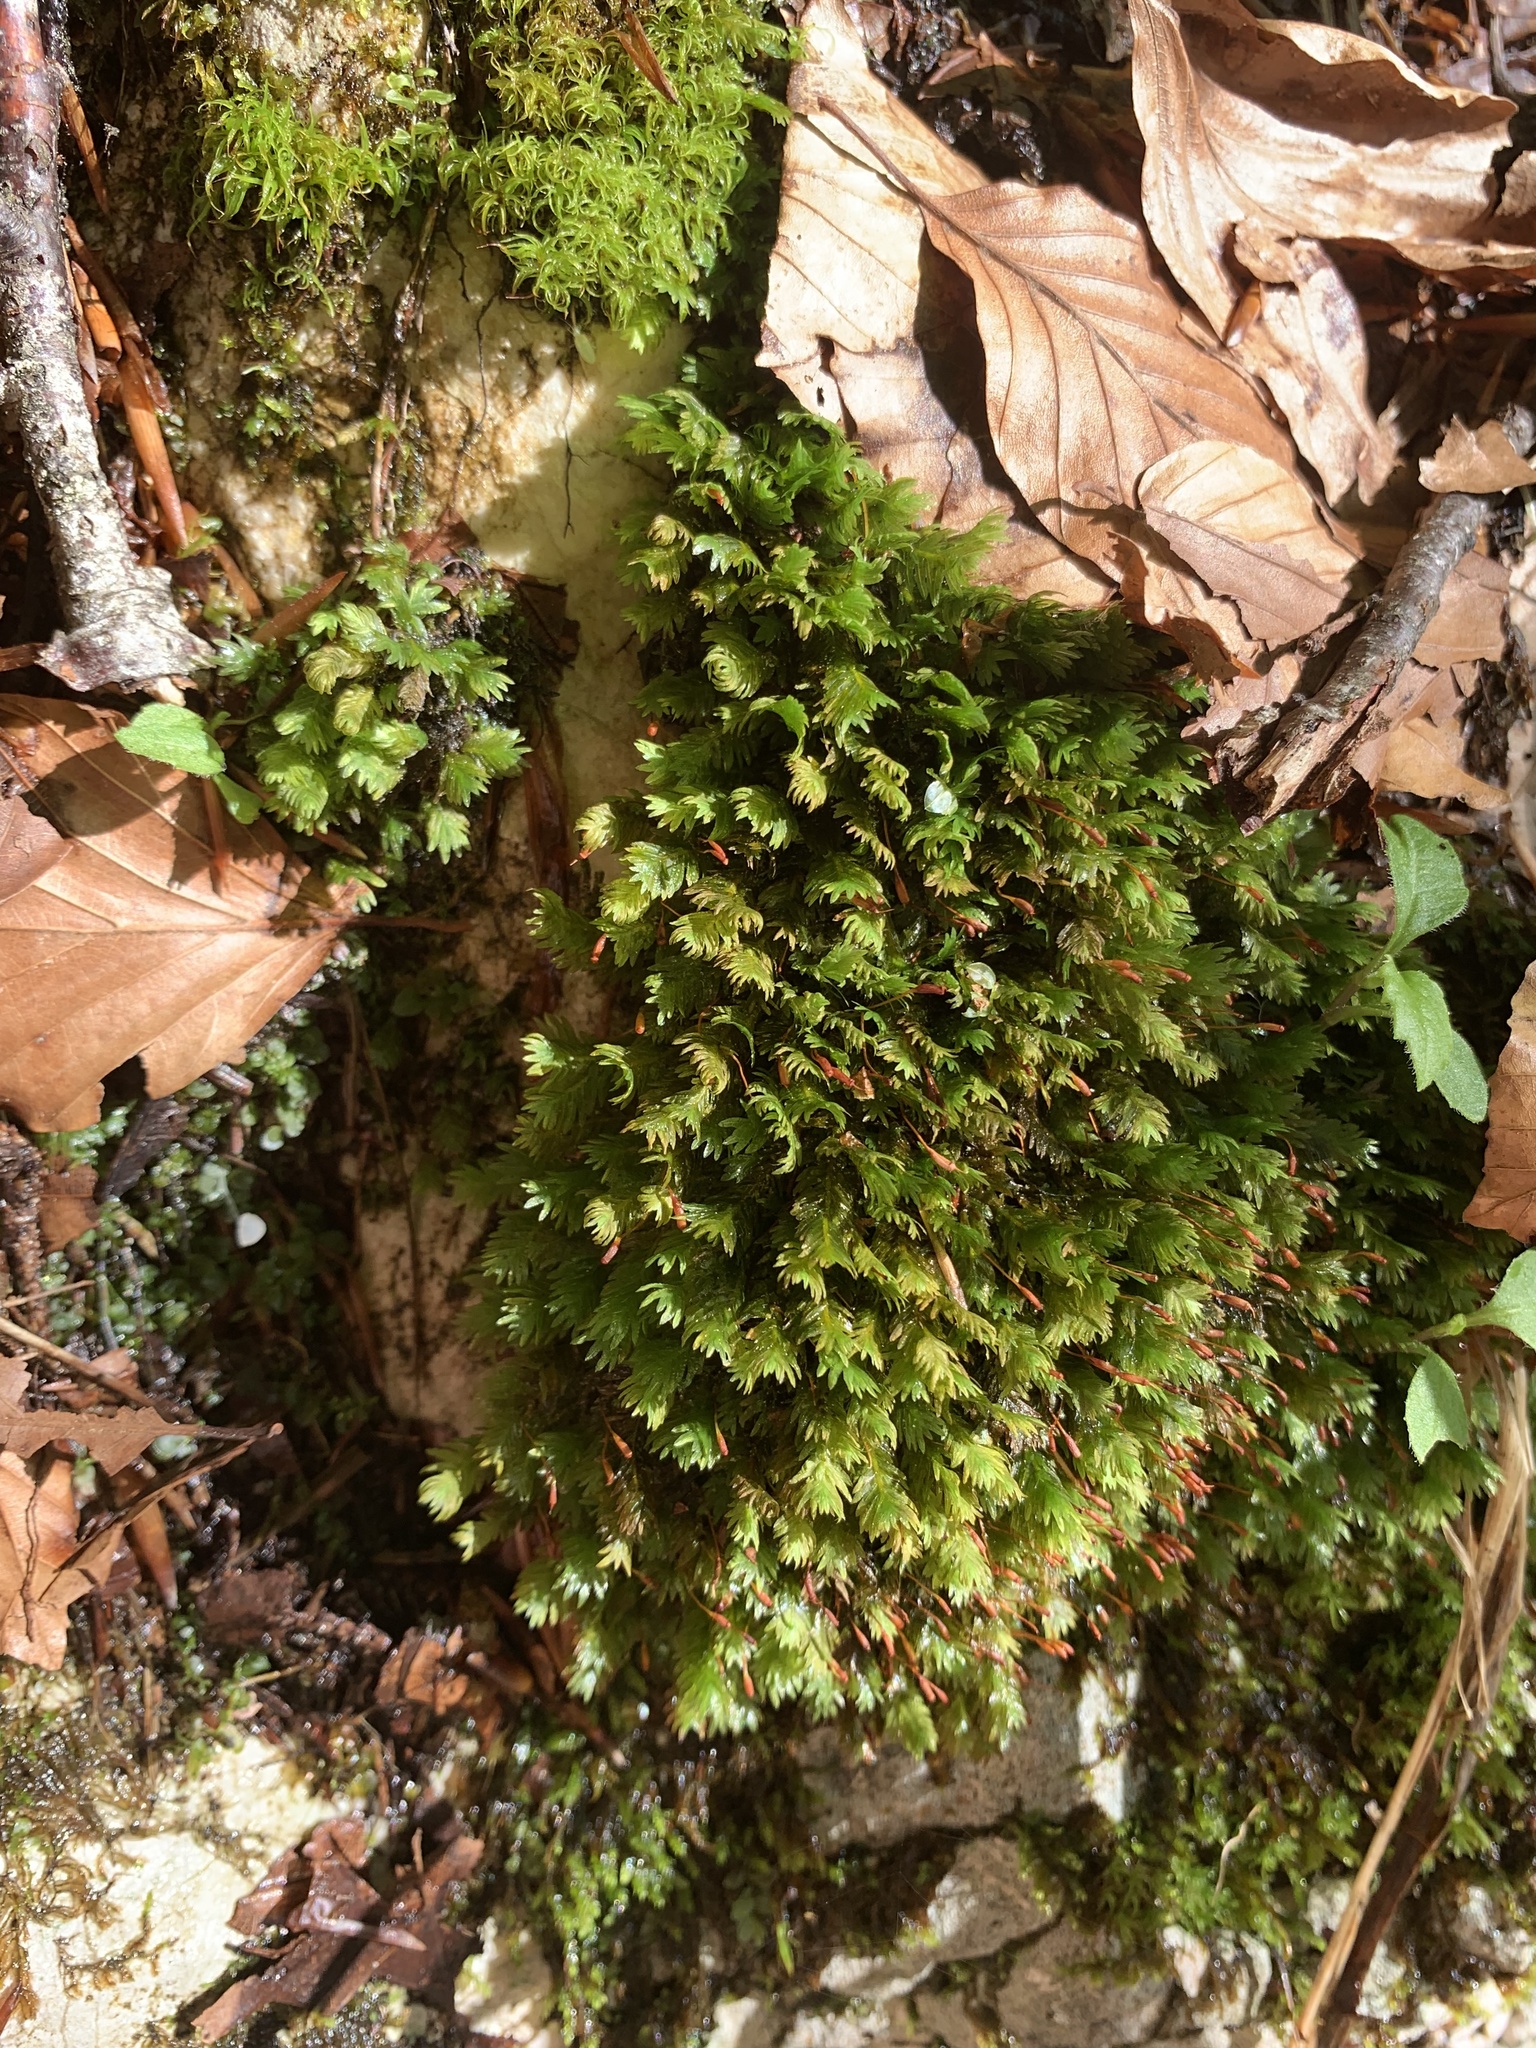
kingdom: Plantae
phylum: Bryophyta
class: Bryopsida
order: Dicranales
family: Fissidentaceae
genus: Fissidens
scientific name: Fissidens dubius
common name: Rock pocket moss
